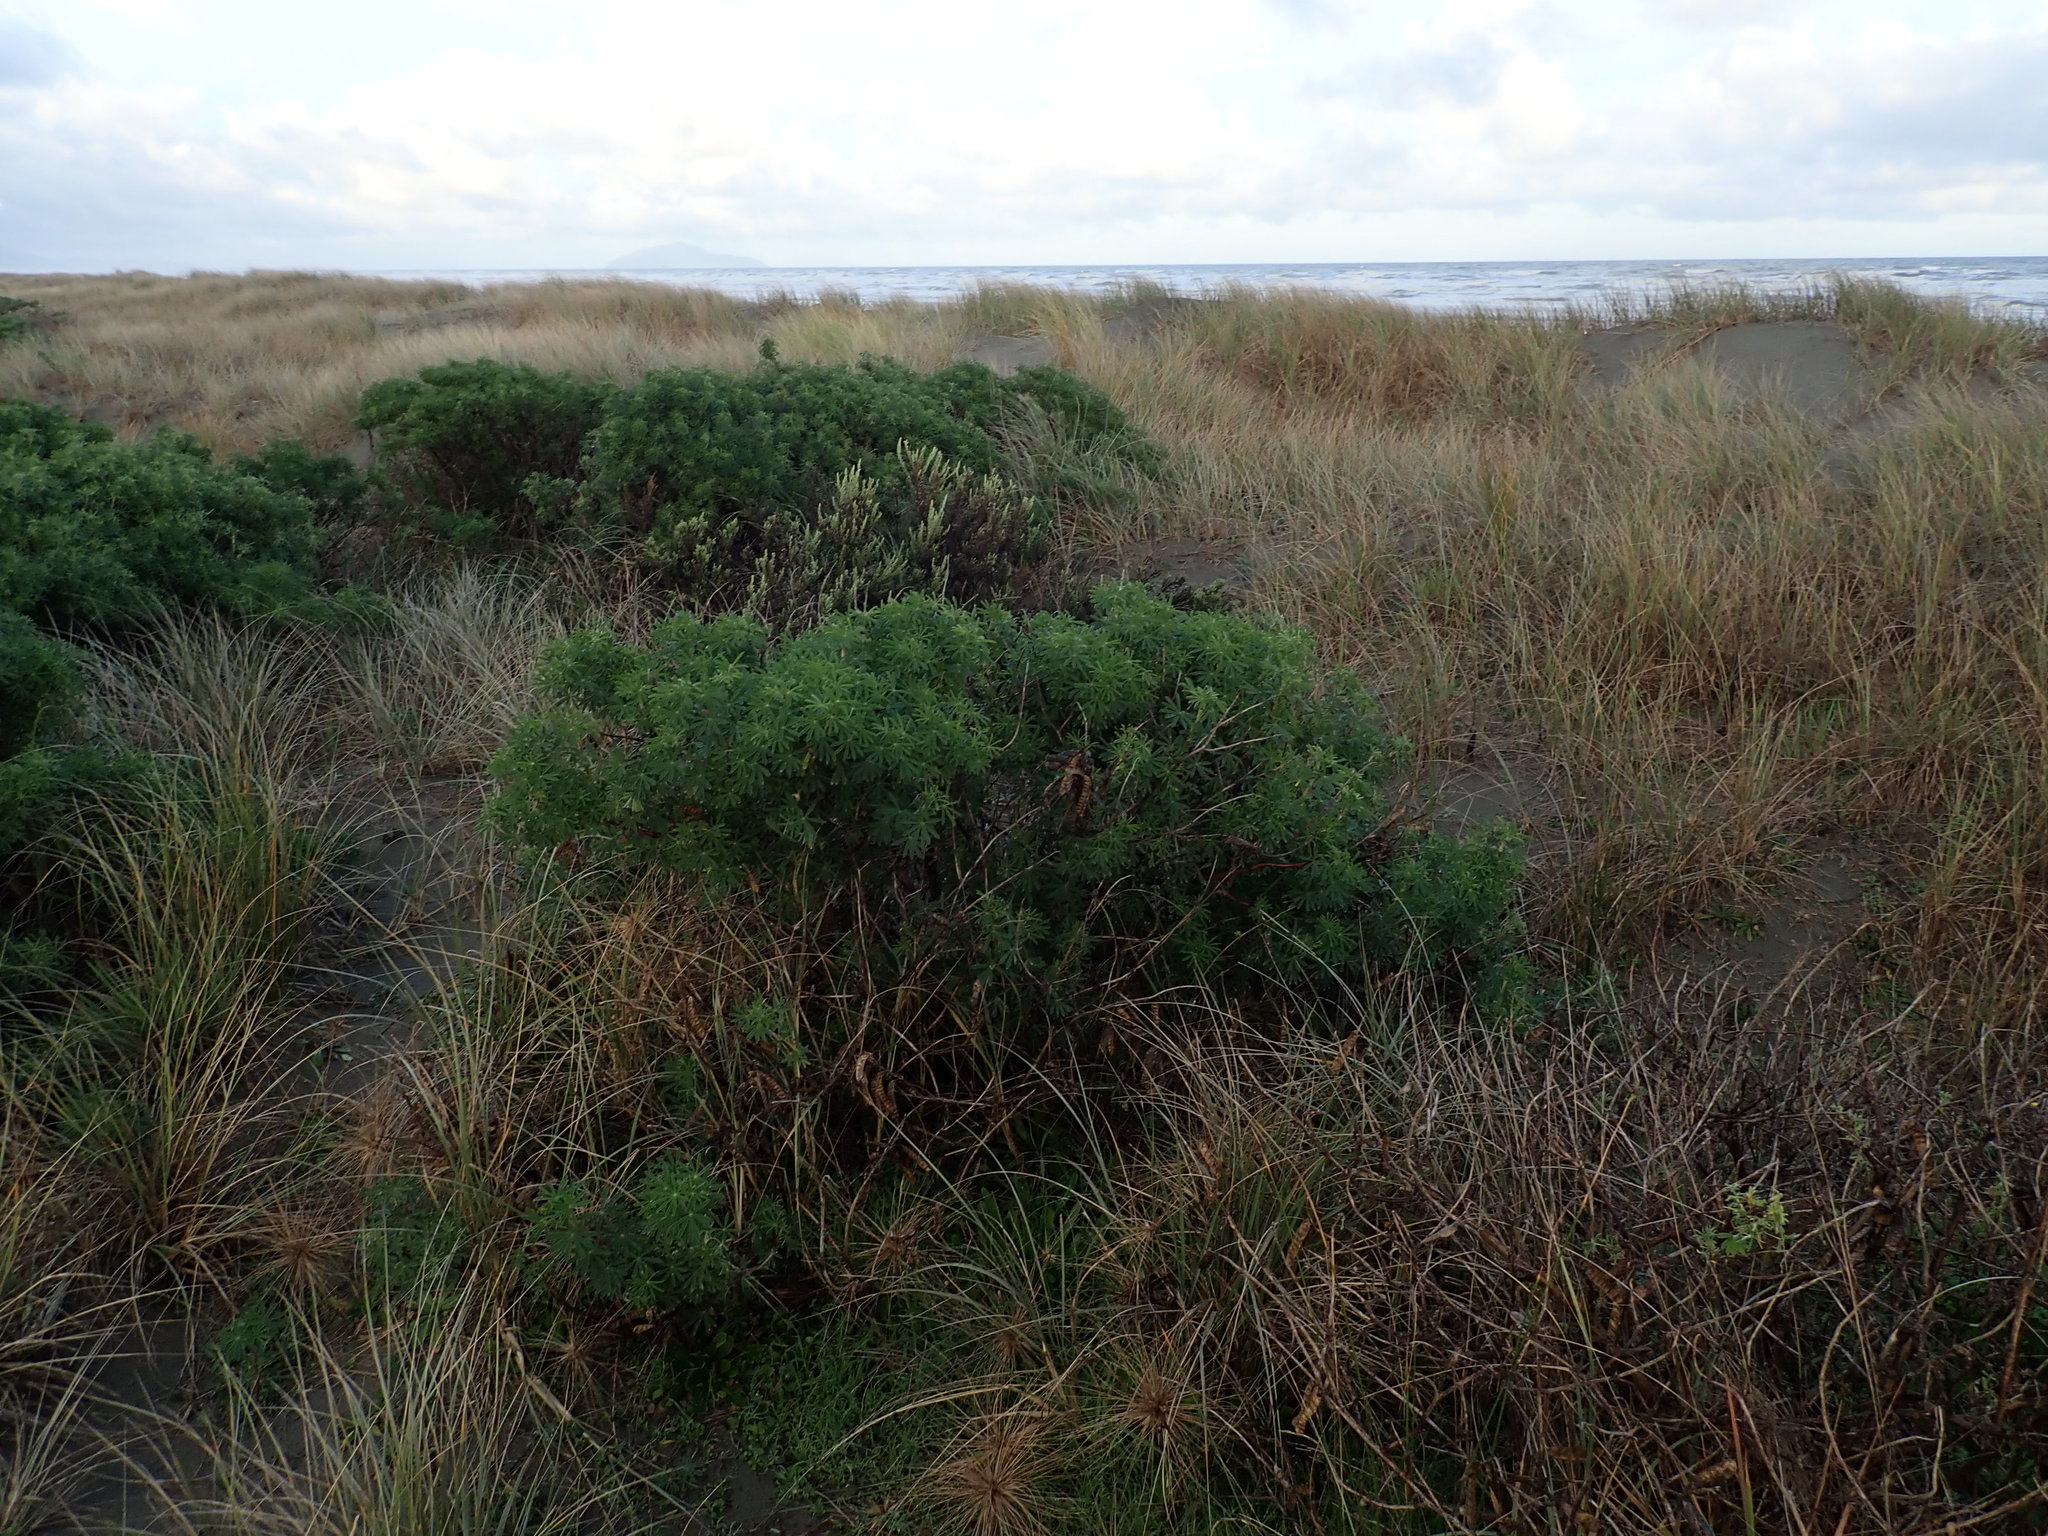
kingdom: Plantae
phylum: Tracheophyta
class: Magnoliopsida
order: Fabales
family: Fabaceae
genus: Lupinus
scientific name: Lupinus arboreus
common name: Yellow bush lupine
